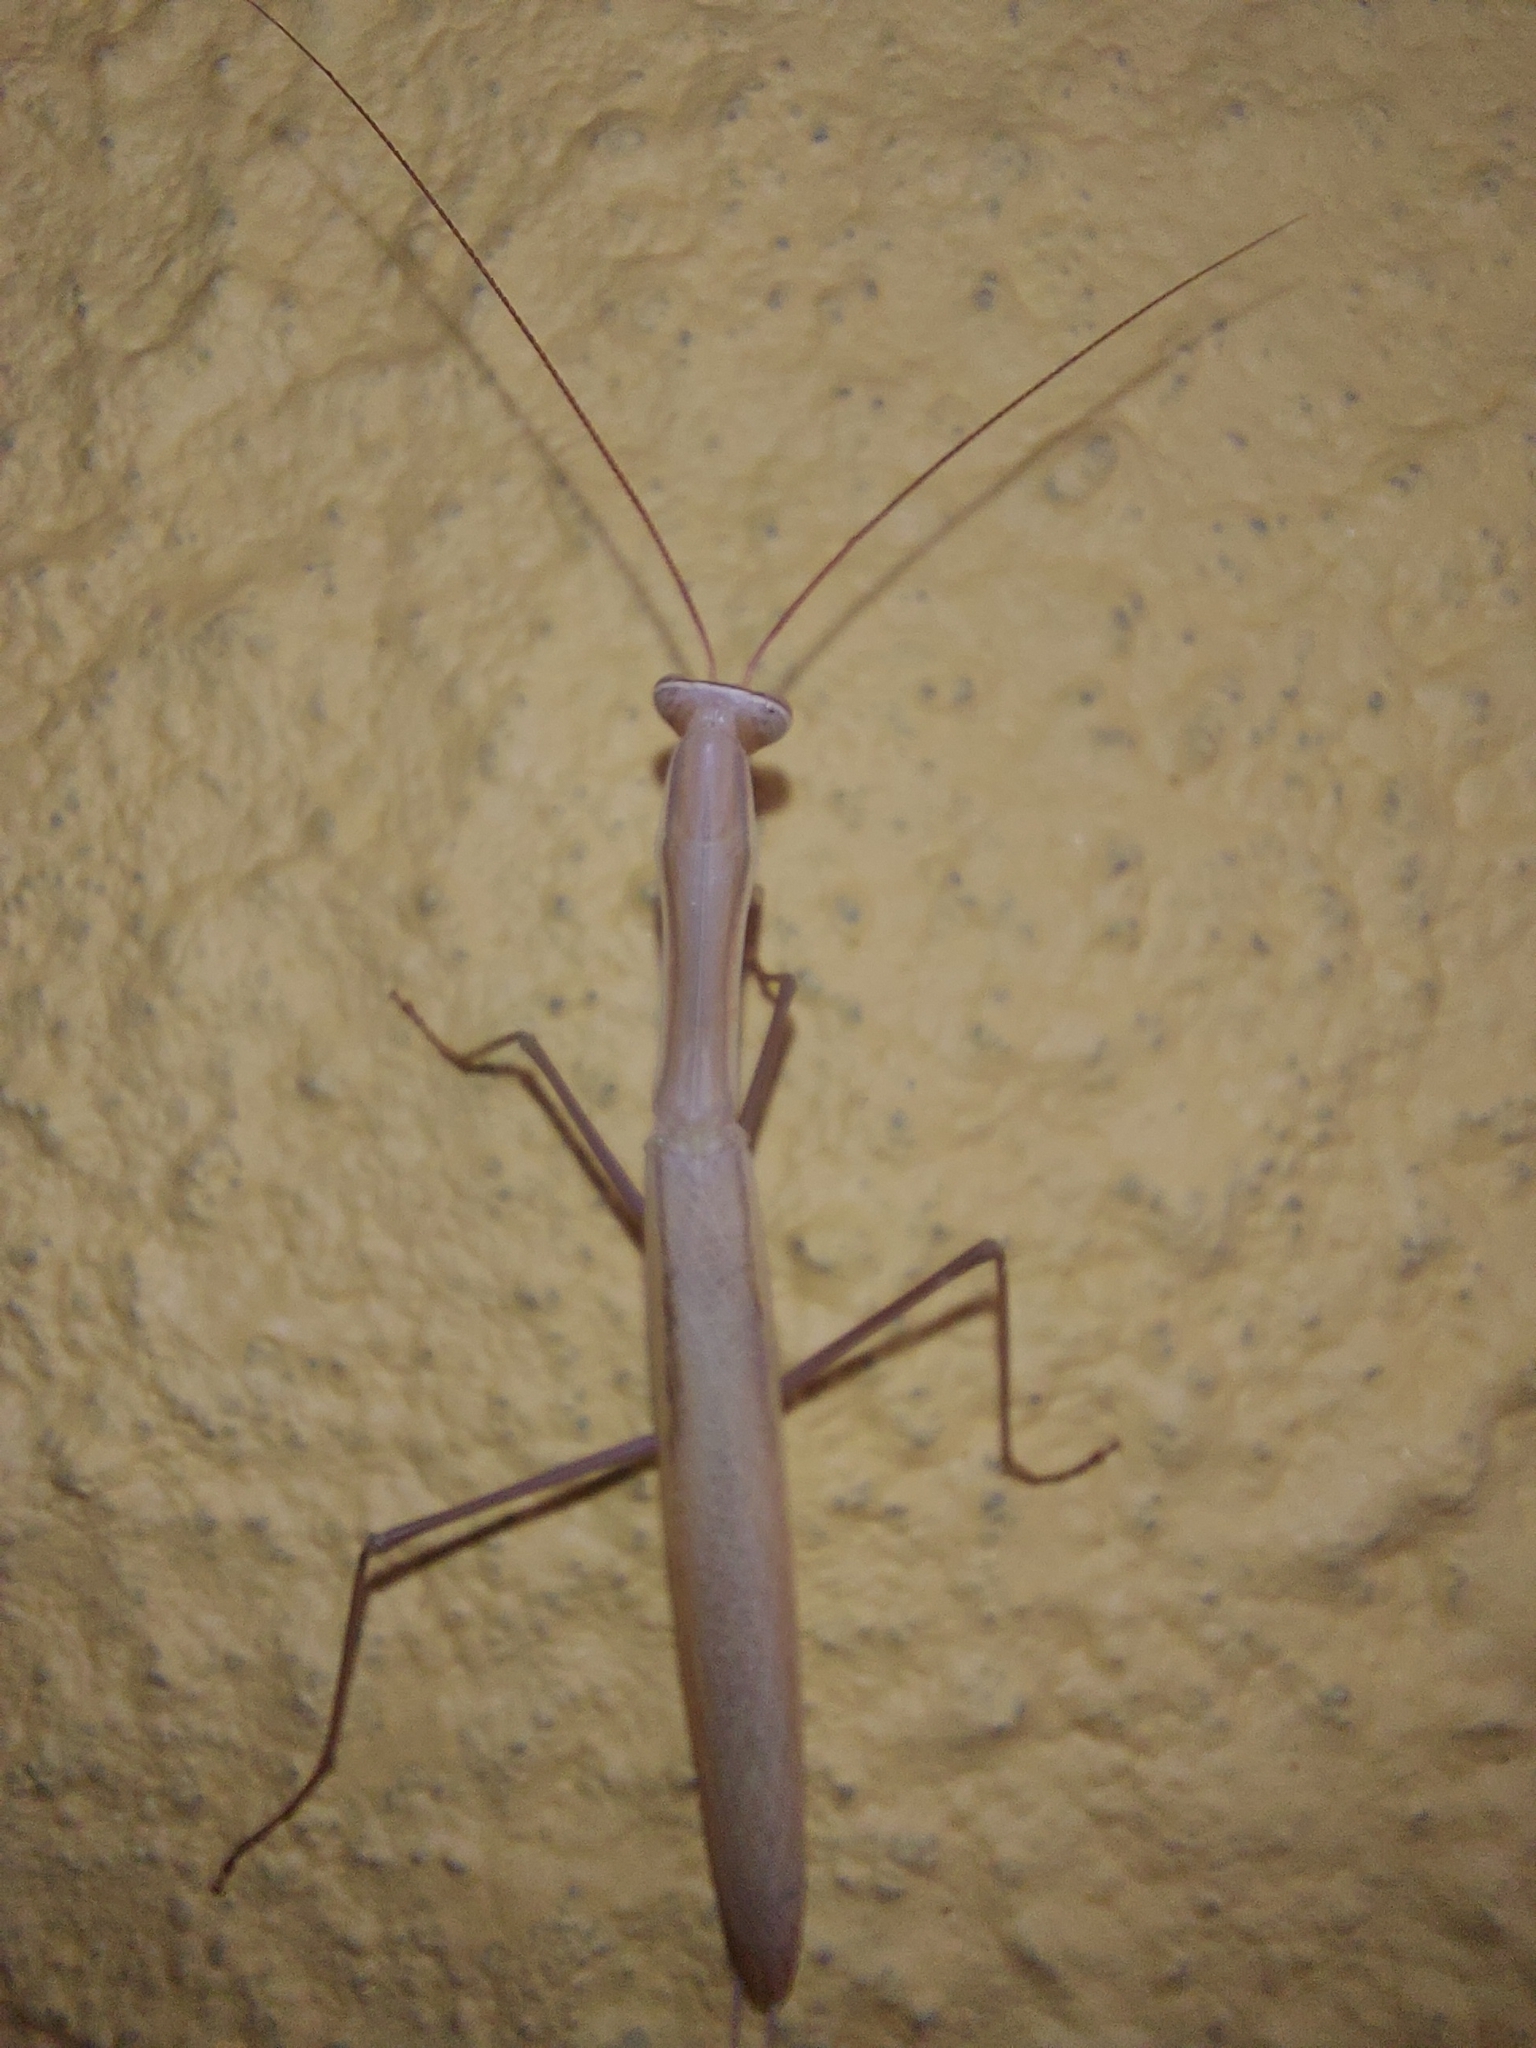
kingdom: Animalia
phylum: Arthropoda
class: Insecta
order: Mantodea
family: Mantidae
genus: Mantis
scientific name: Mantis religiosa
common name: Praying mantis
